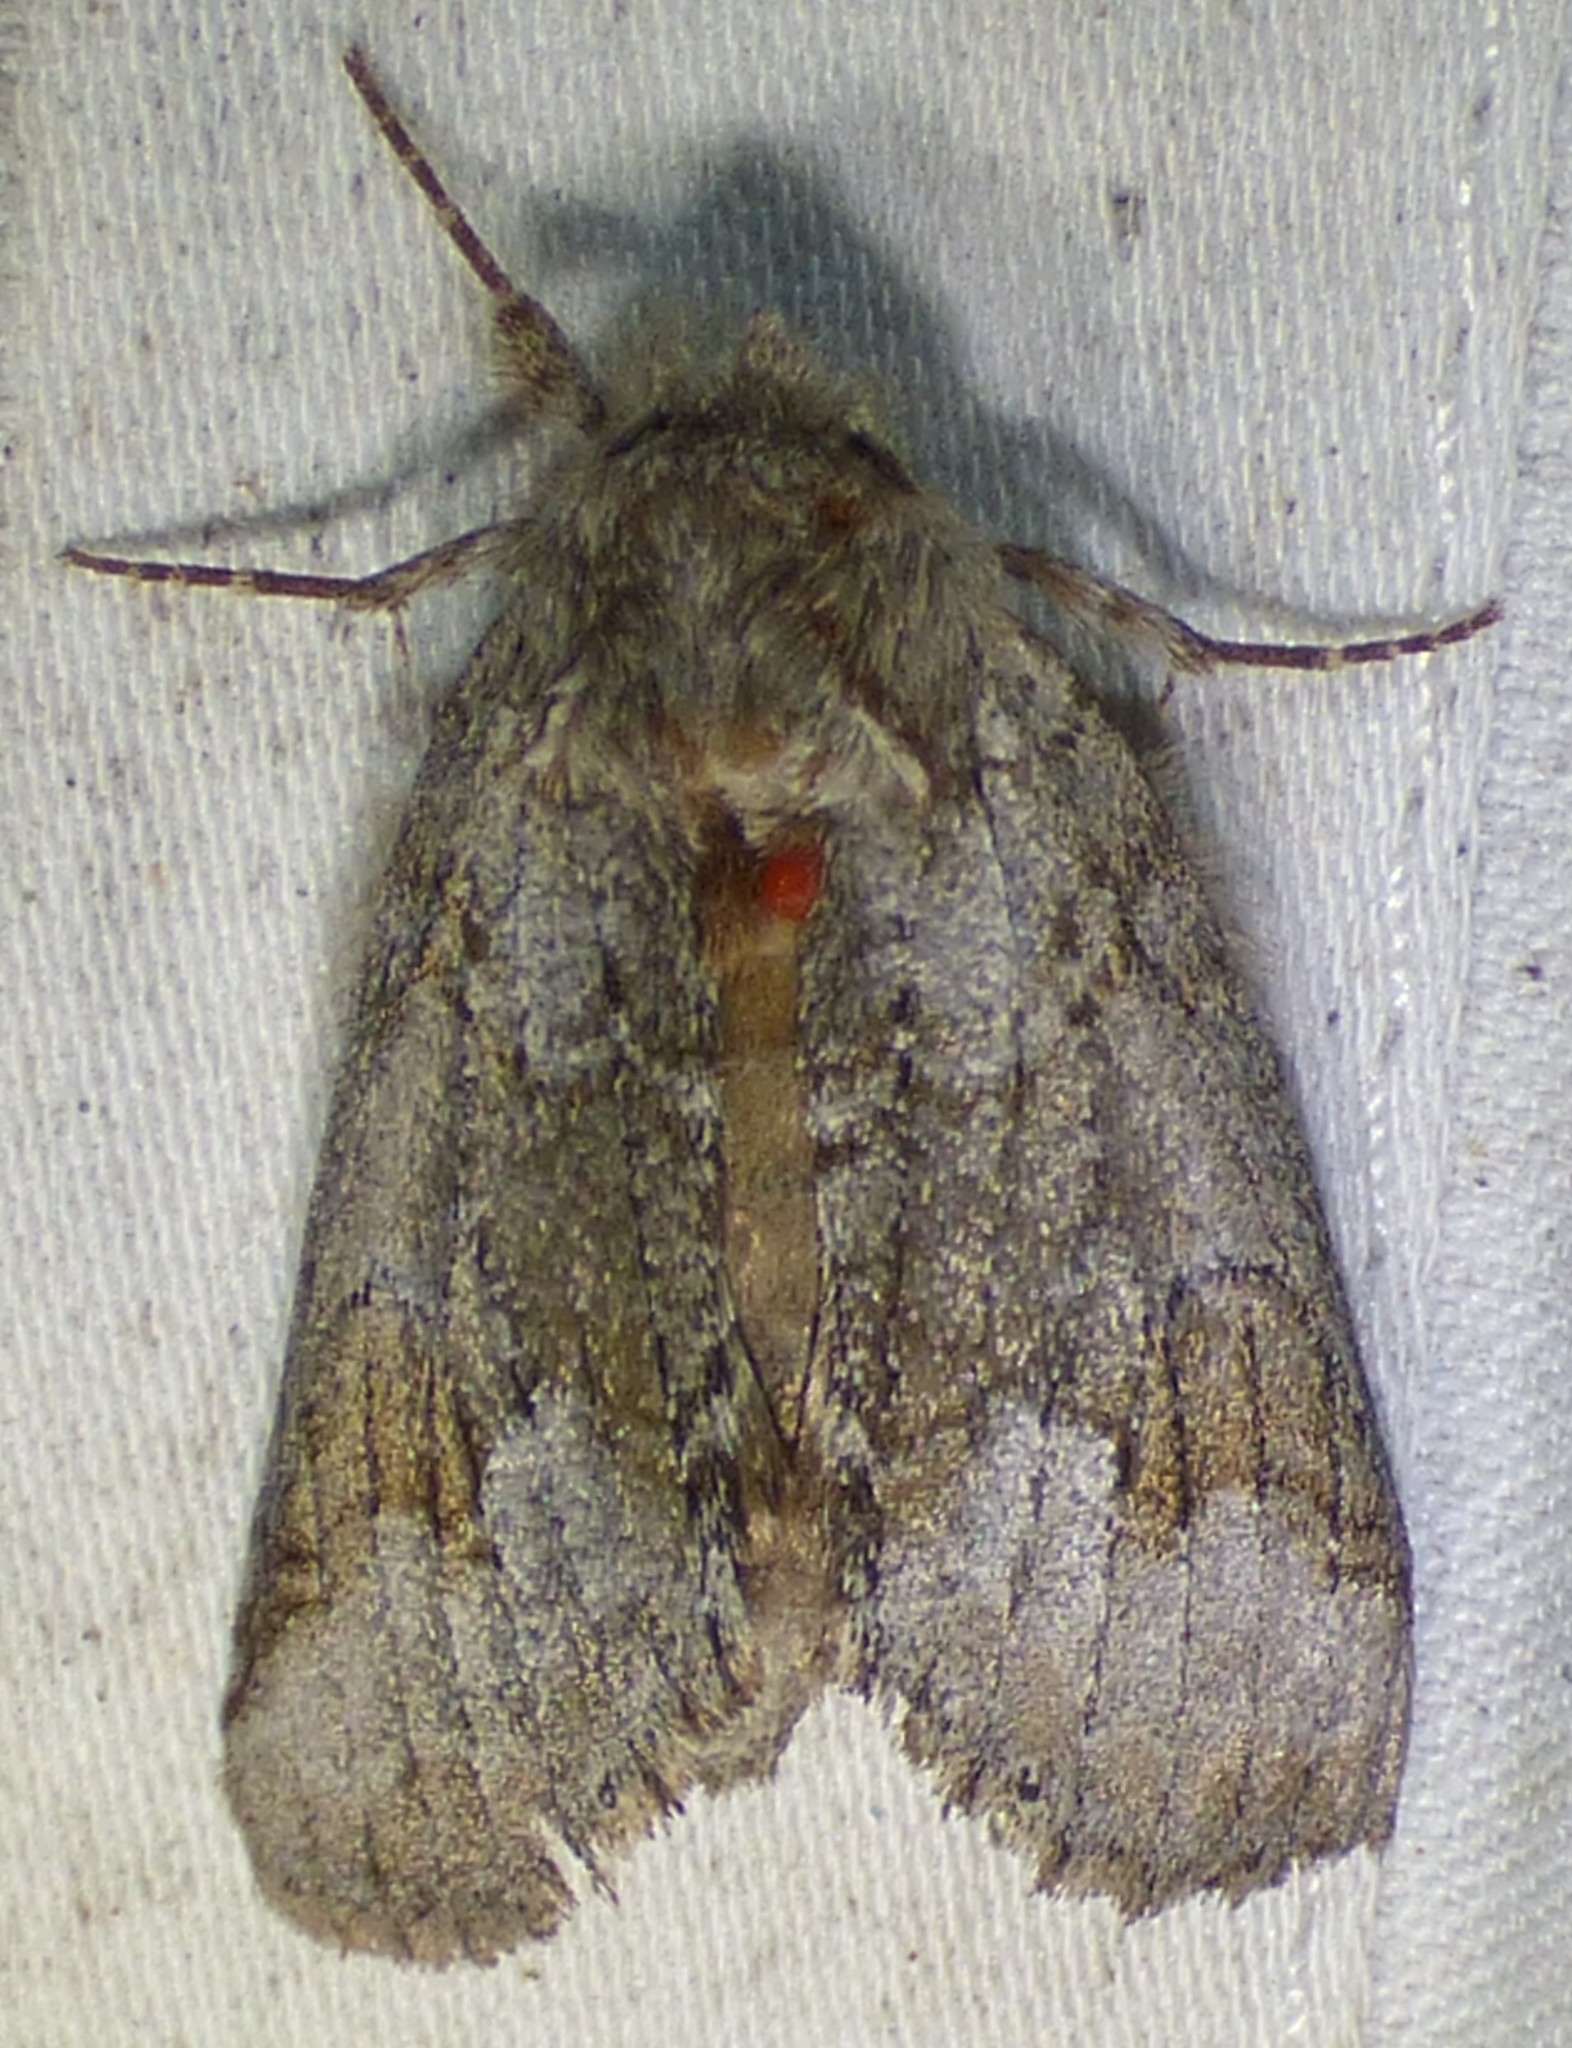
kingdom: Animalia
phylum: Arthropoda
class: Insecta
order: Lepidoptera
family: Notodontidae
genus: Lochmaeus
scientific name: Lochmaeus bilineata
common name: Double-lined prominent
